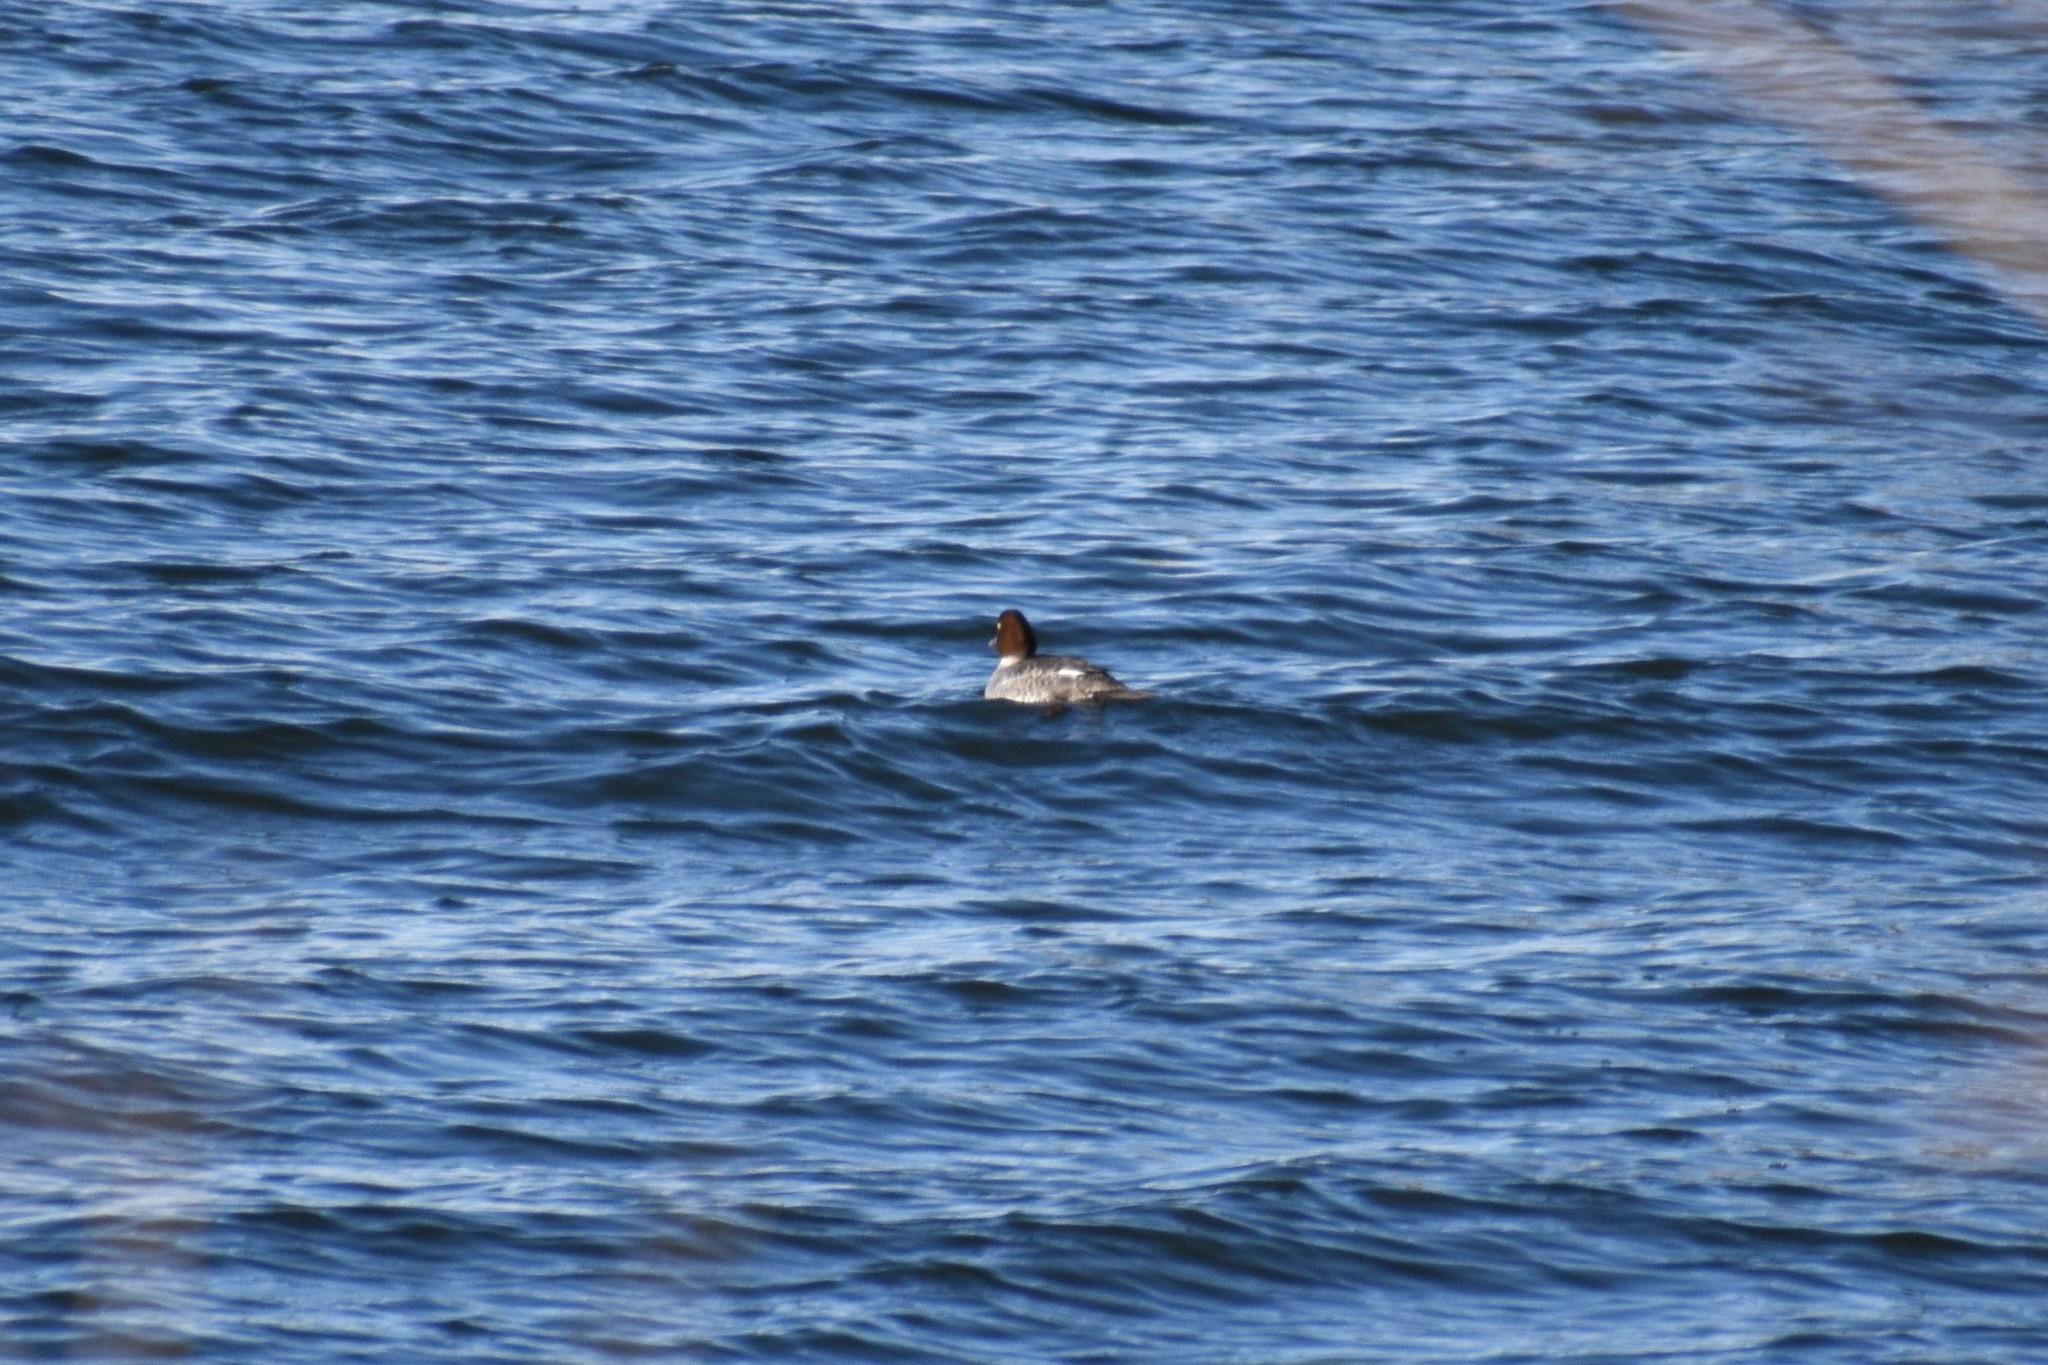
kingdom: Animalia
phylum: Chordata
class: Aves
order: Anseriformes
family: Anatidae
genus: Bucephala
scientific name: Bucephala clangula
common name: Common goldeneye
